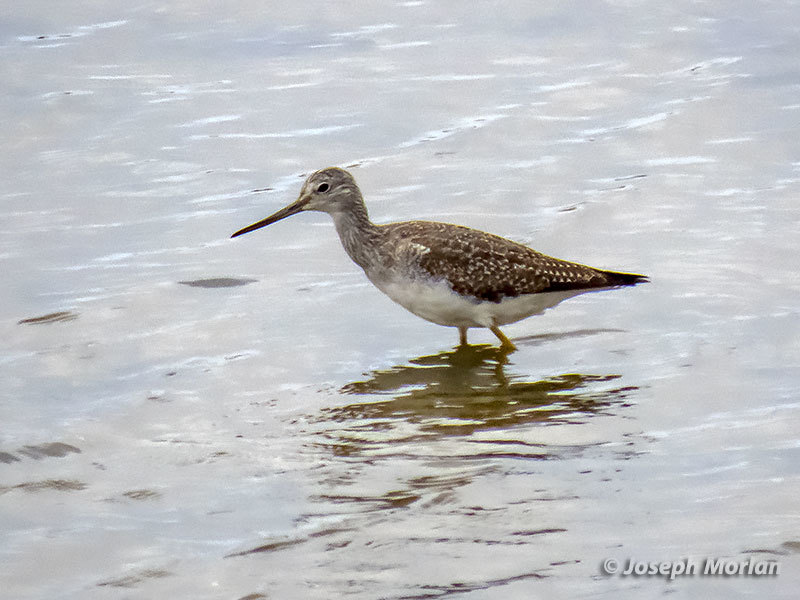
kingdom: Animalia
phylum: Chordata
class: Aves
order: Charadriiformes
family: Scolopacidae
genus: Tringa
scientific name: Tringa melanoleuca
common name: Greater yellowlegs
